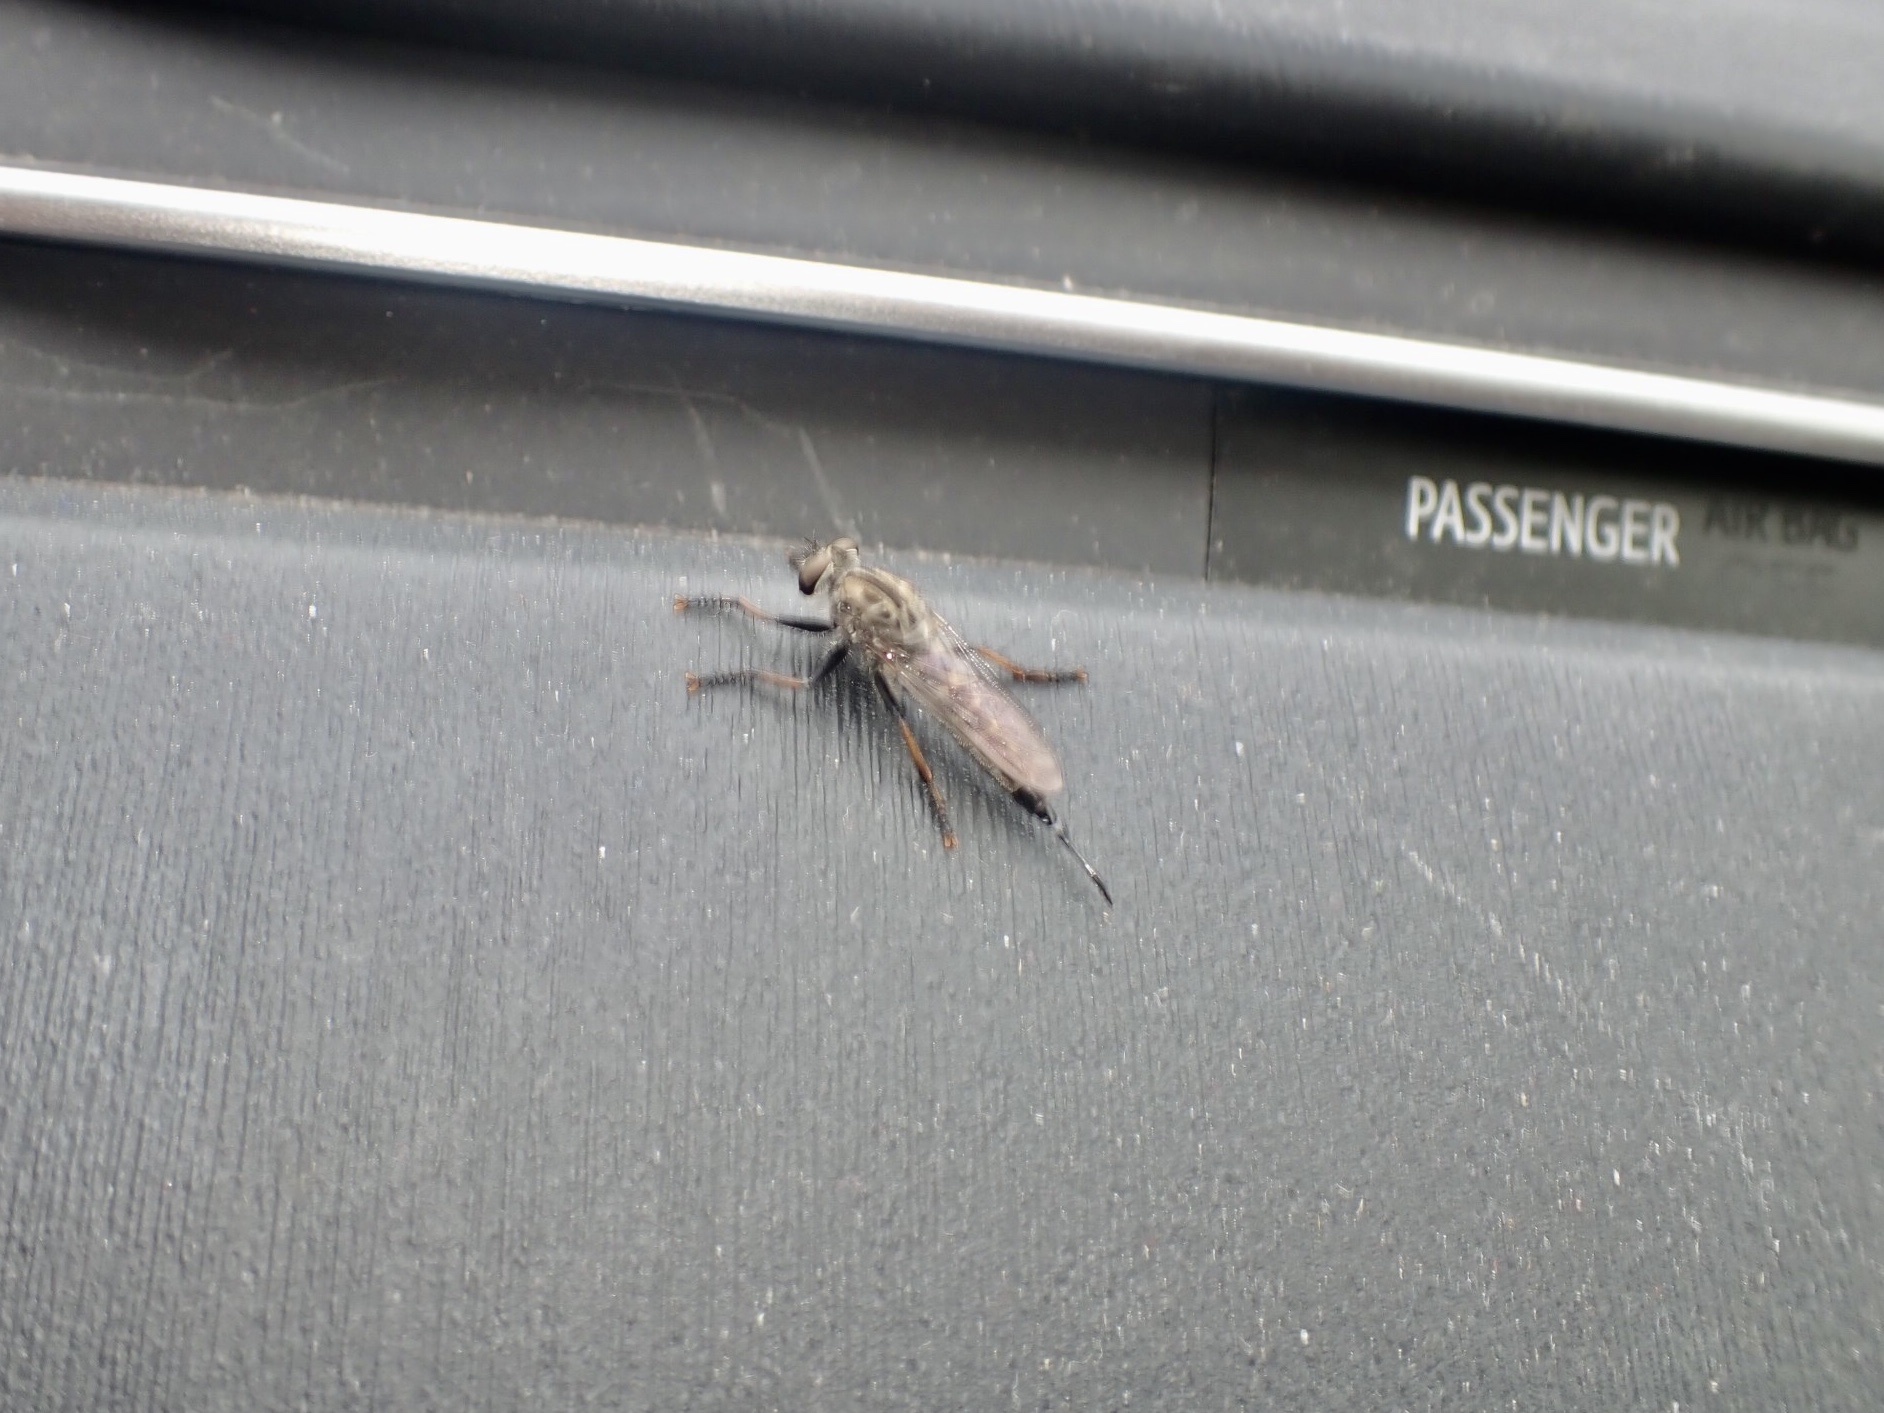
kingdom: Animalia
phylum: Arthropoda
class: Insecta
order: Diptera
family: Asilidae
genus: Efferia
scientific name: Efferia aestuans
